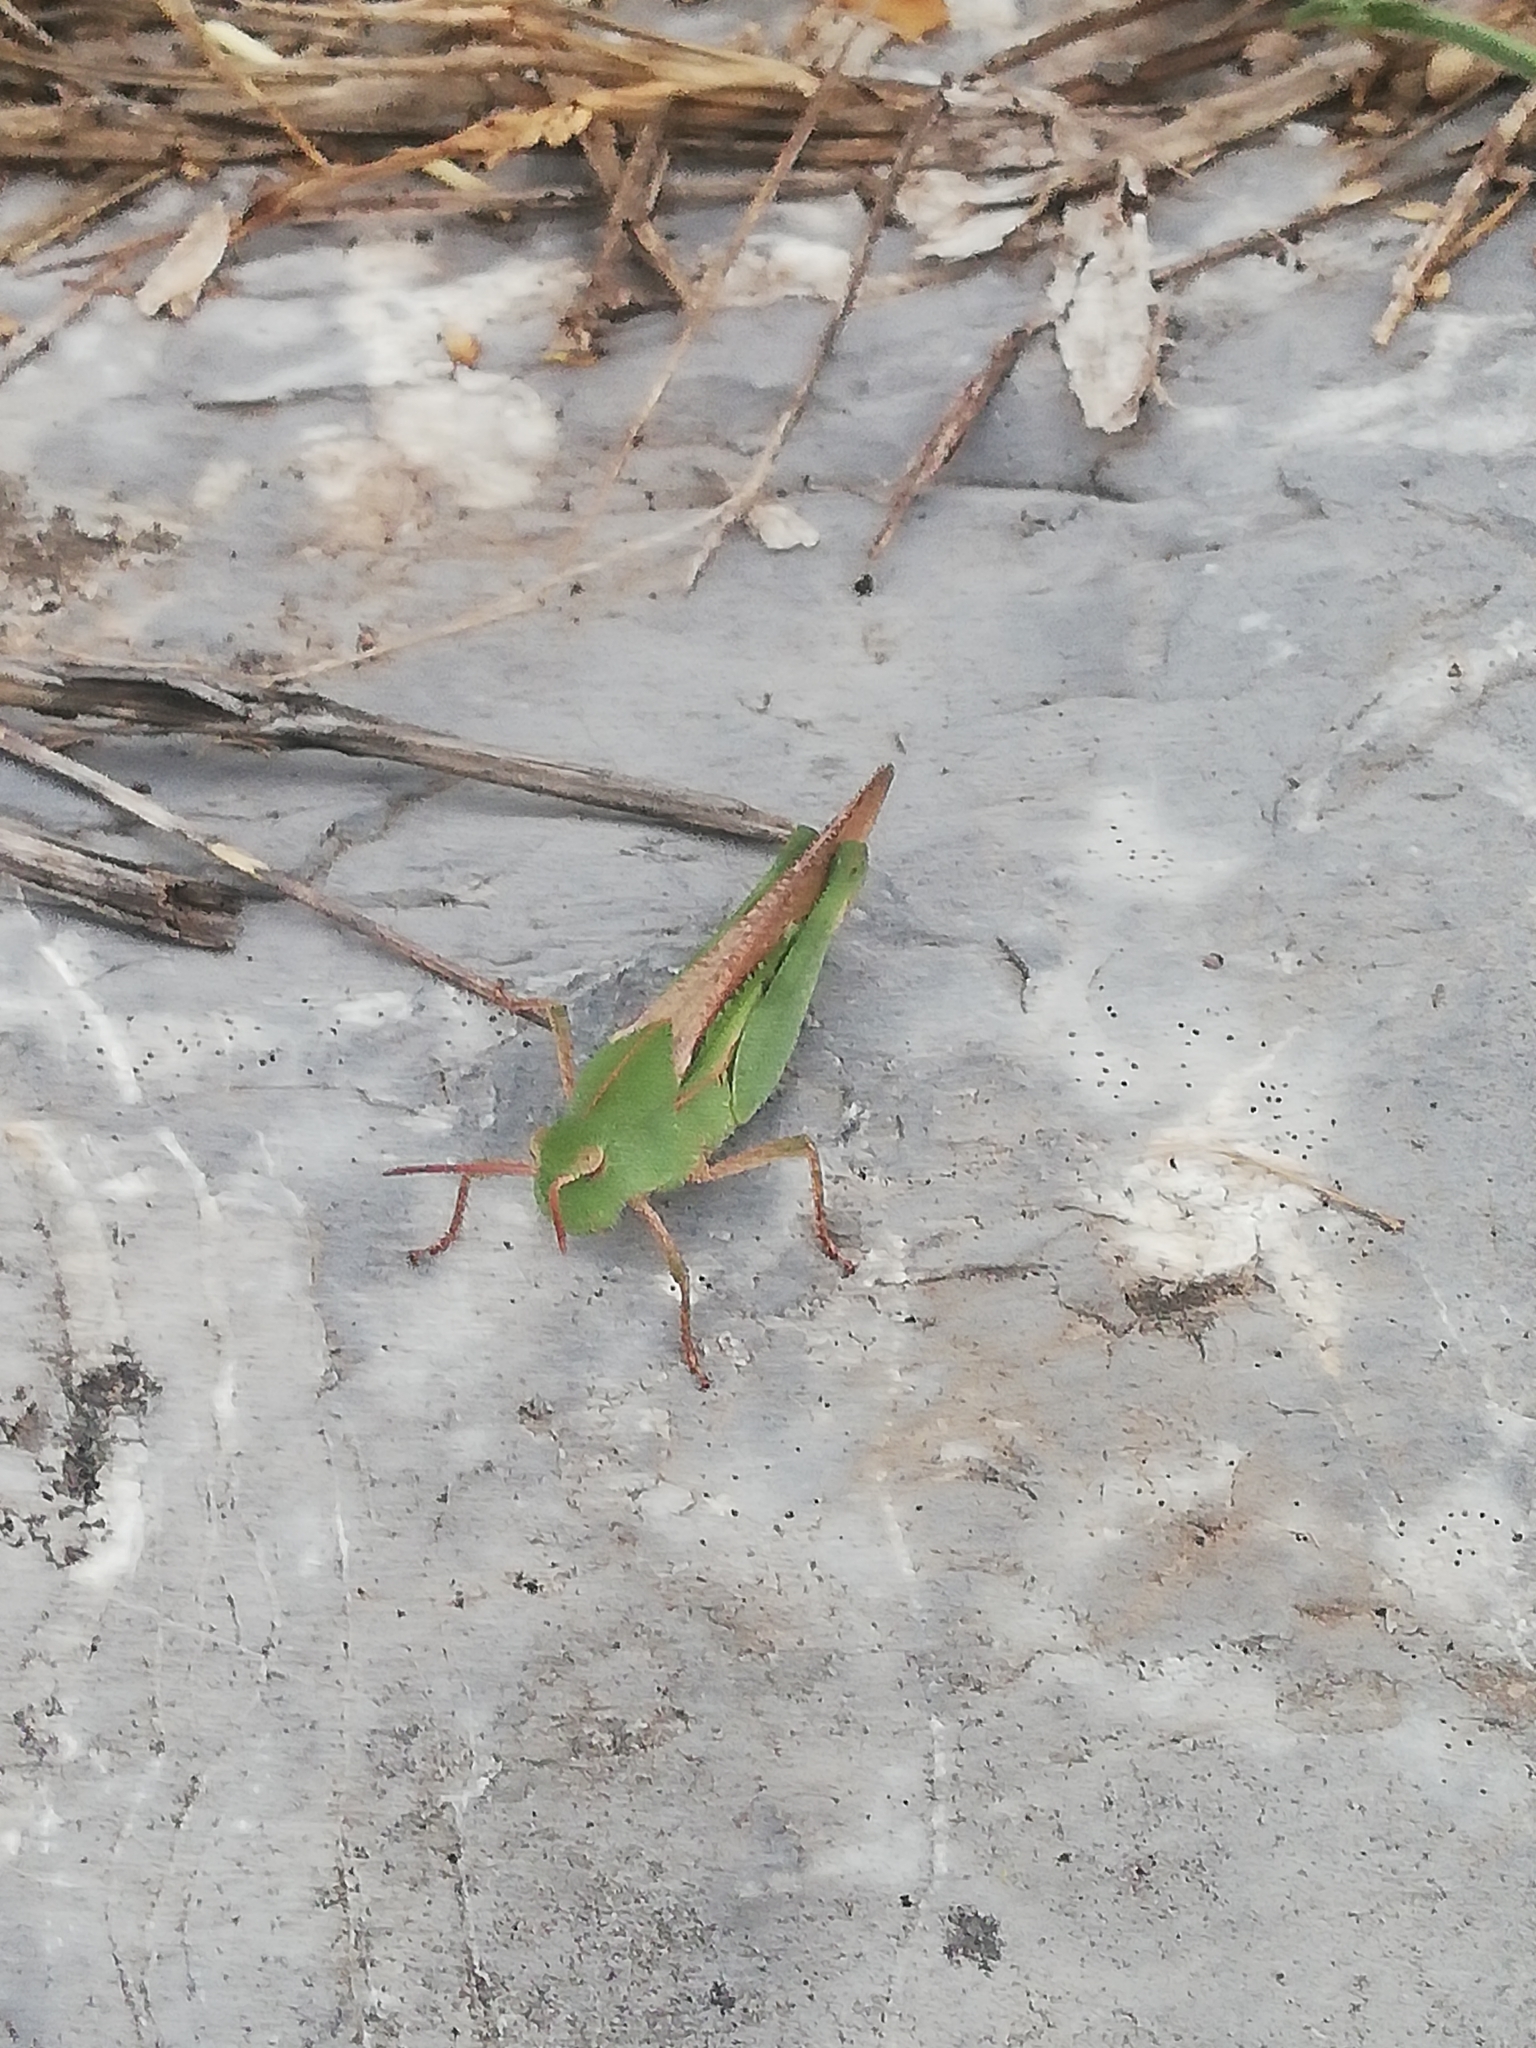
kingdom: Animalia
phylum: Arthropoda
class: Insecta
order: Orthoptera
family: Acrididae
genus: Chortophaga
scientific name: Chortophaga viridifasciata
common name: Green-striped grasshopper
